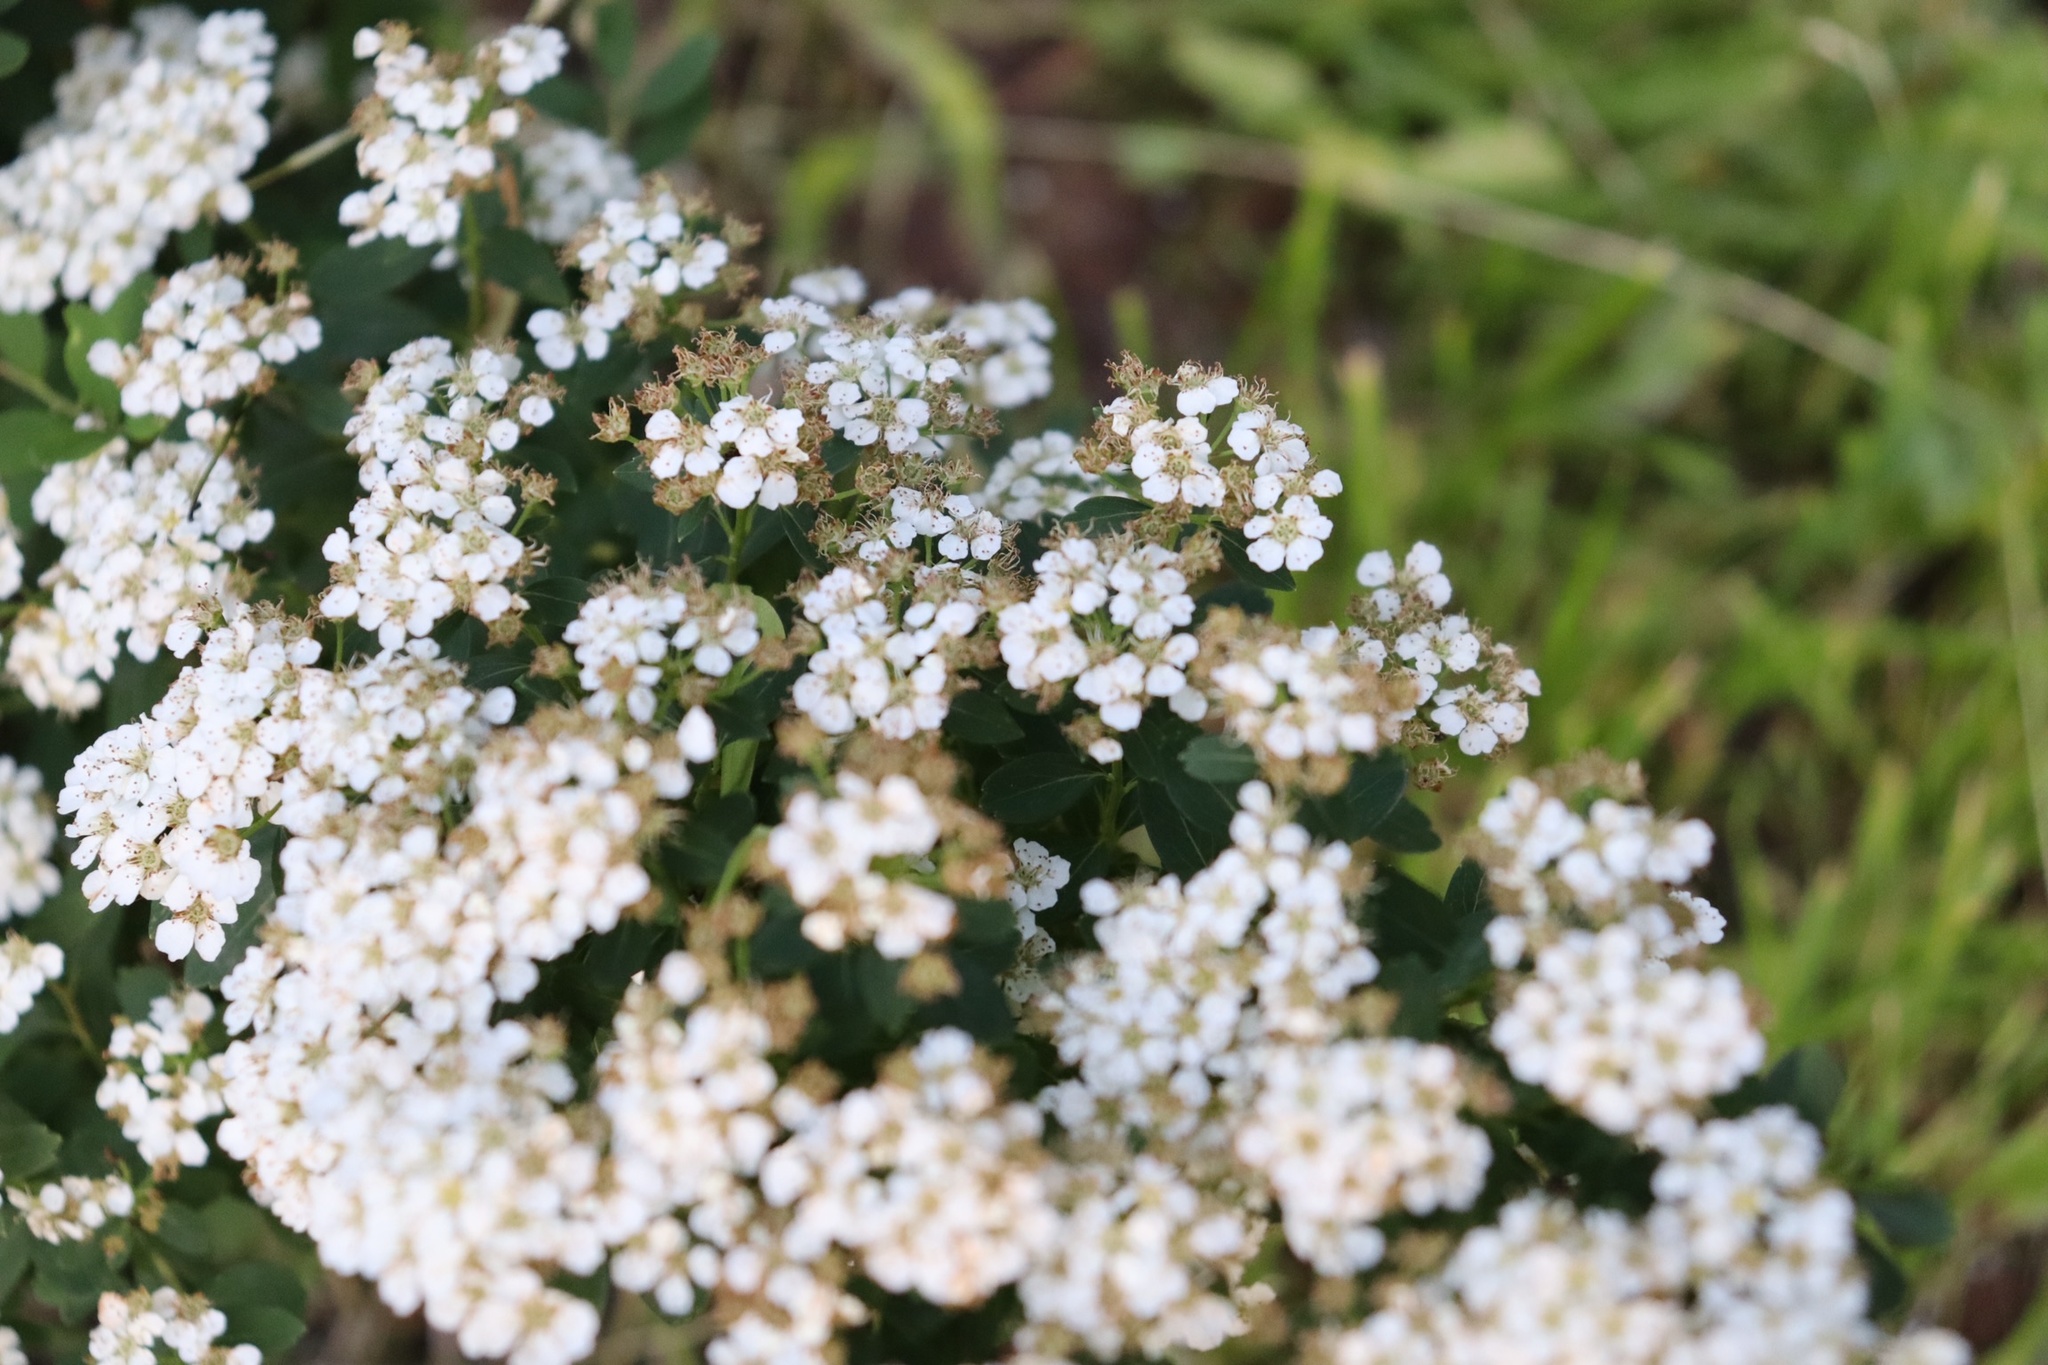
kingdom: Plantae
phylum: Tracheophyta
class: Magnoliopsida
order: Asterales
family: Asteraceae
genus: Achillea
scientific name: Achillea millefolium
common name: Yarrow
